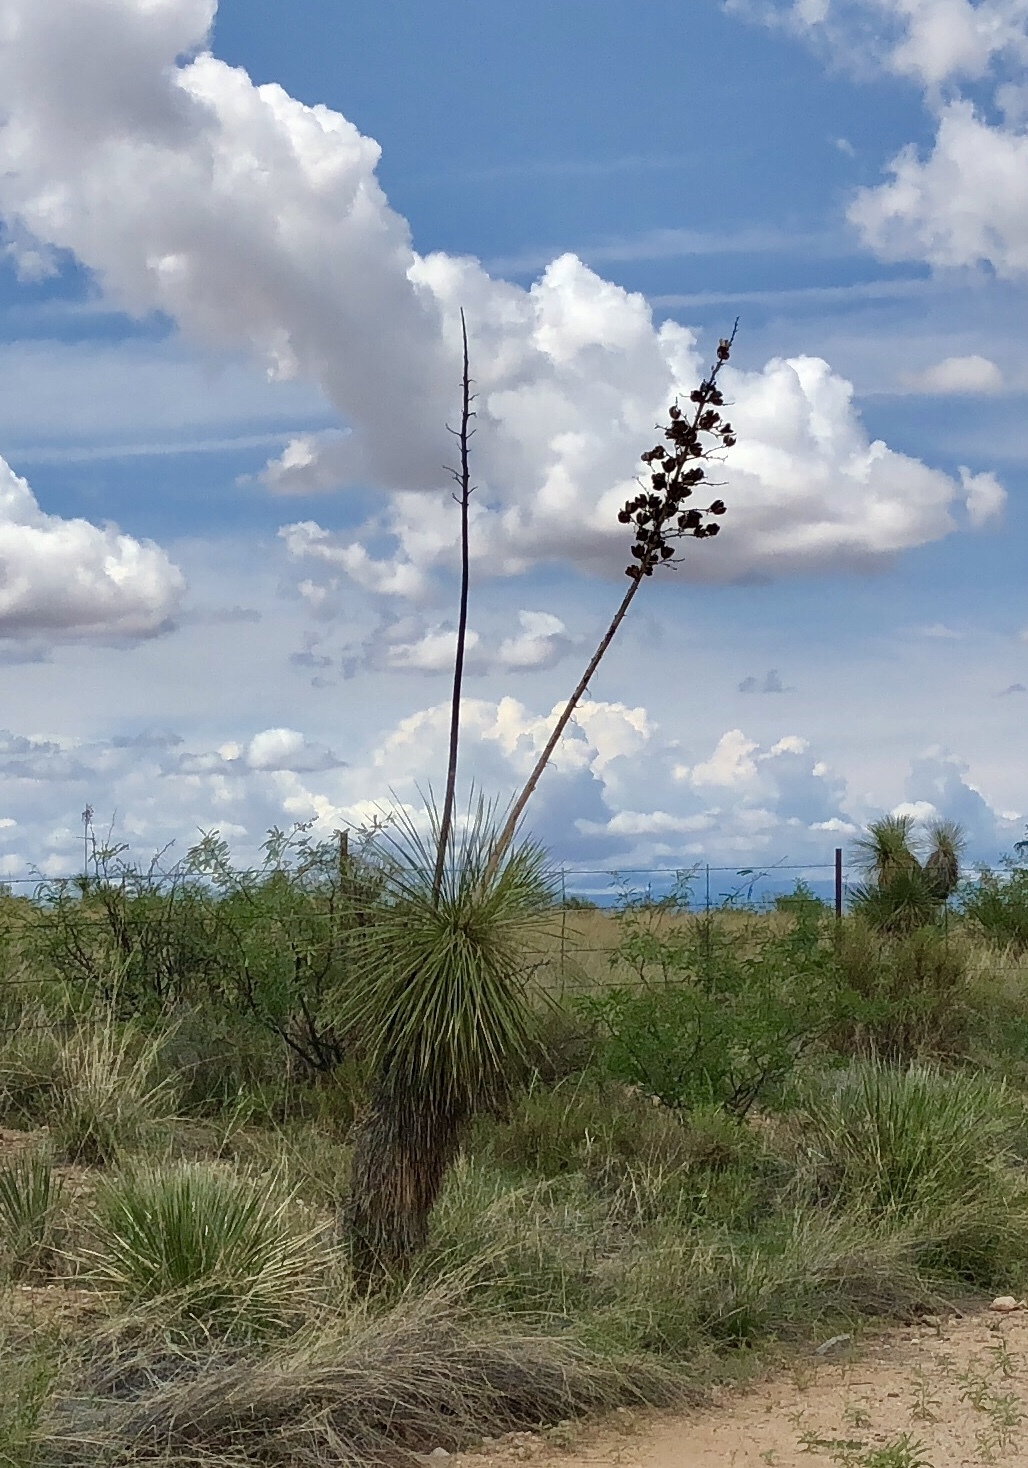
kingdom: Plantae
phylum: Tracheophyta
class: Liliopsida
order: Asparagales
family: Asparagaceae
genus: Yucca
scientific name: Yucca elata
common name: Palmella
